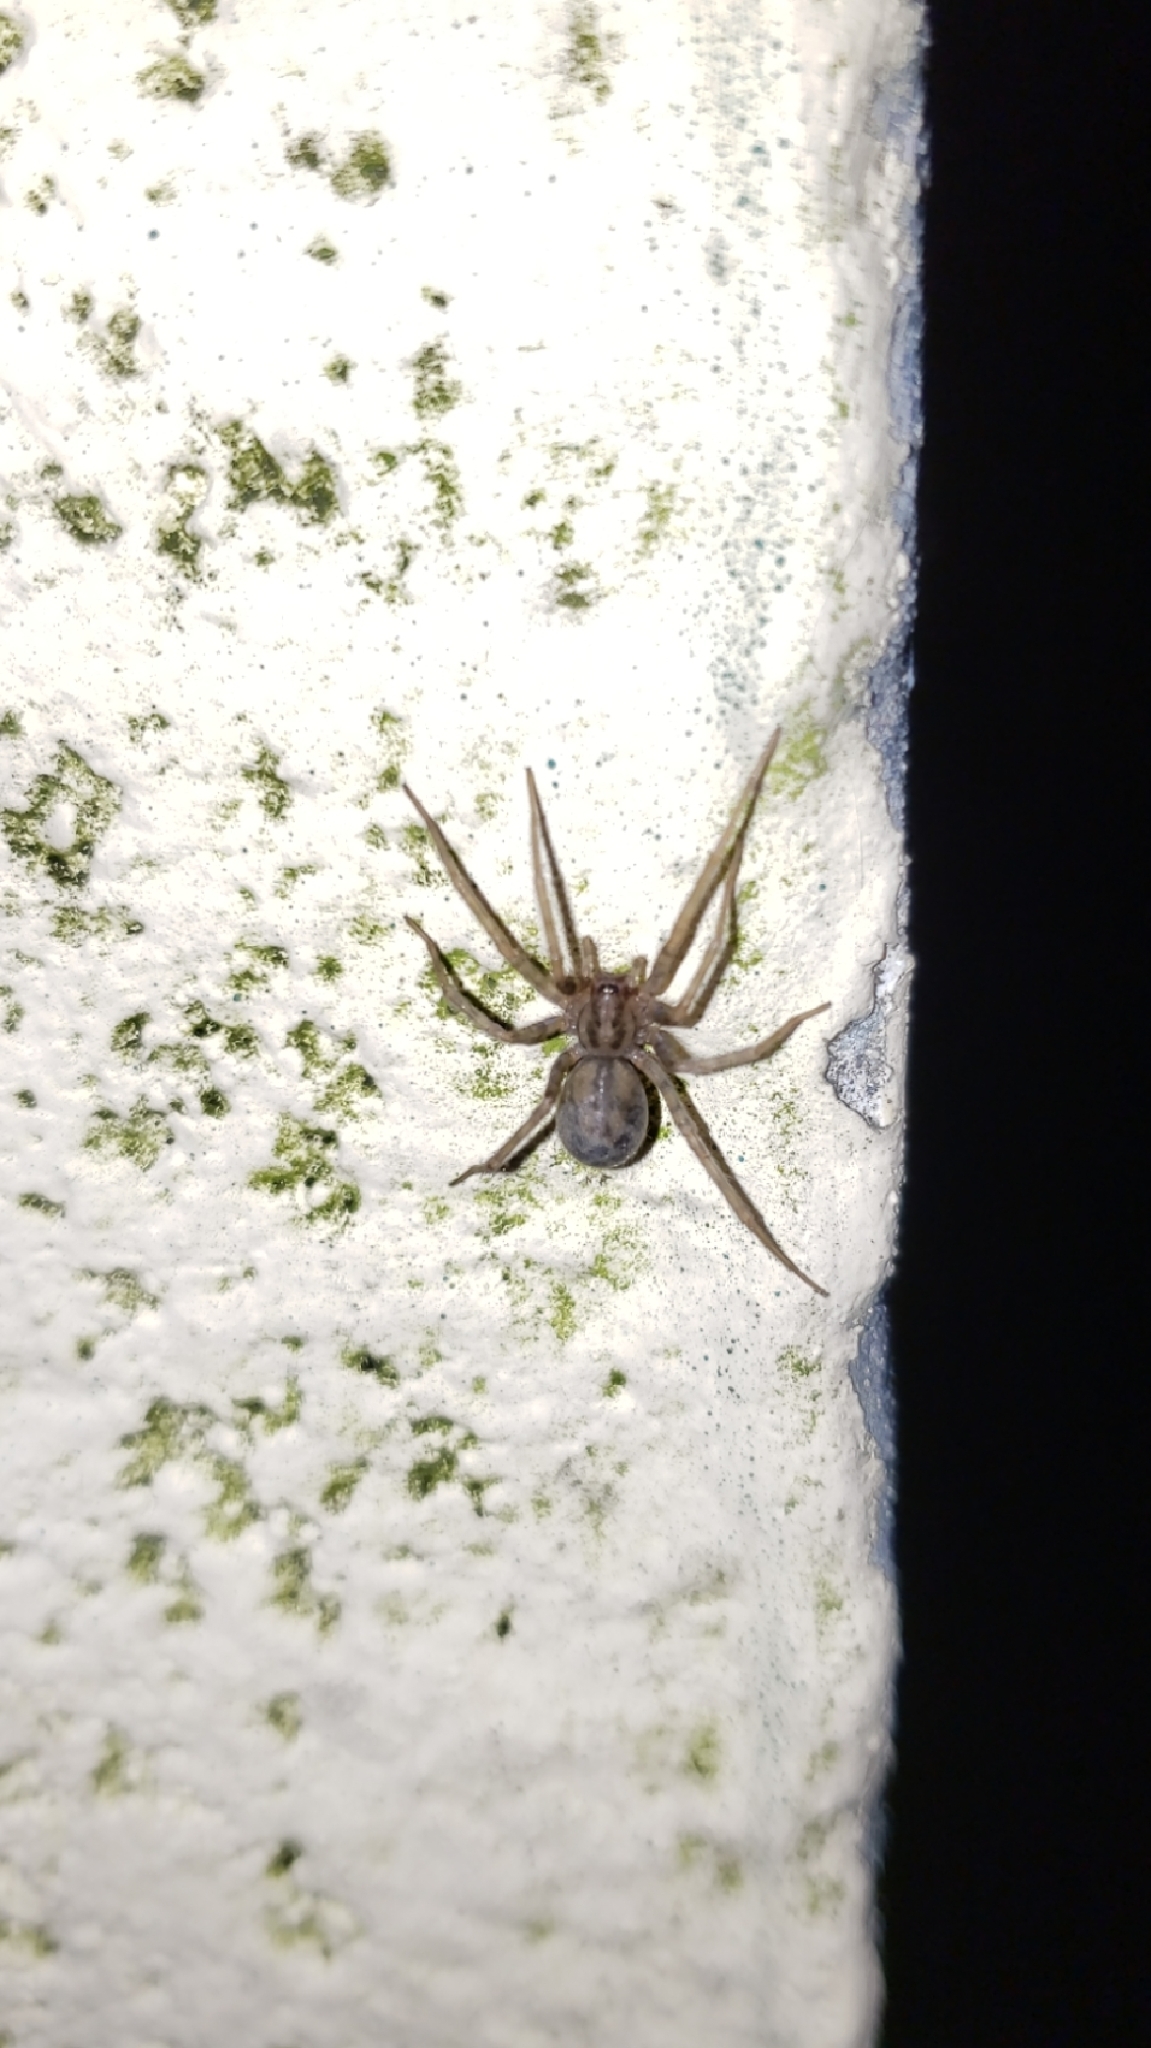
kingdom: Animalia
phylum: Arthropoda
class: Arachnida
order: Araneae
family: Agelenidae
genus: Tegenaria
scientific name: Tegenaria domestica
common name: Barn funnel weaver
